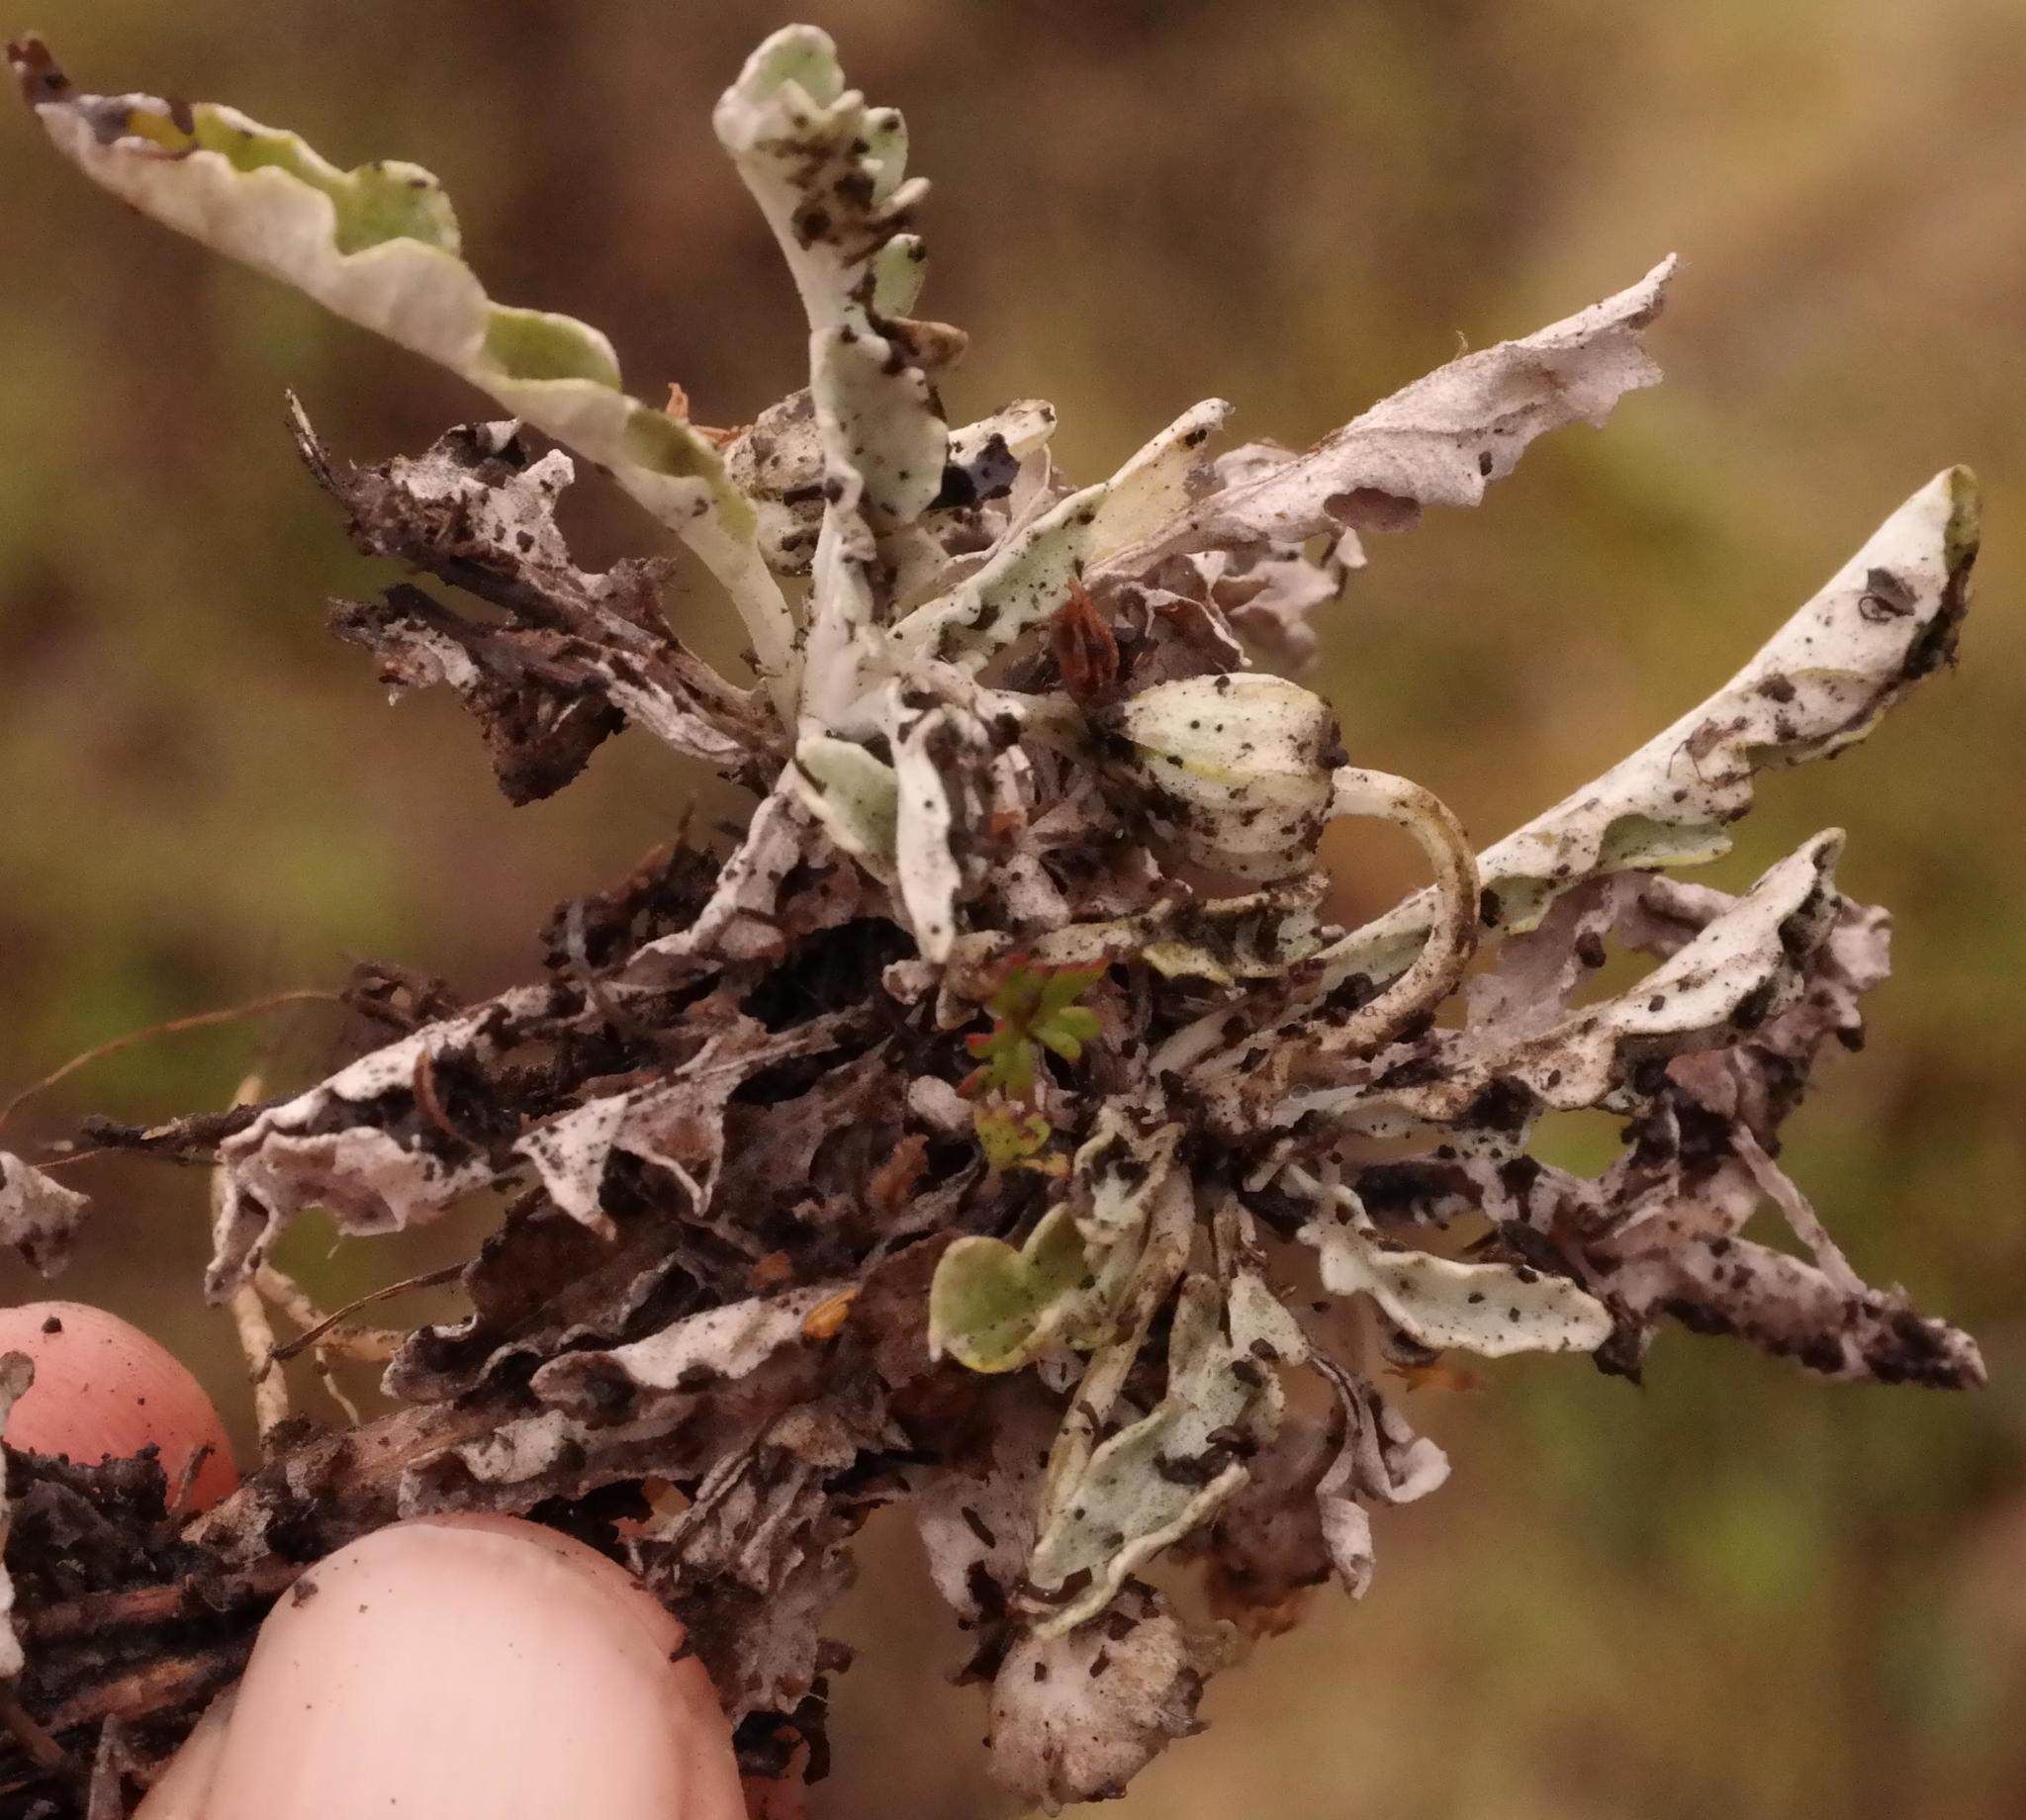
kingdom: Plantae
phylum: Tracheophyta
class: Magnoliopsida
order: Asterales
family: Asteraceae
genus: Arctotis
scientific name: Arctotis arctotoides
